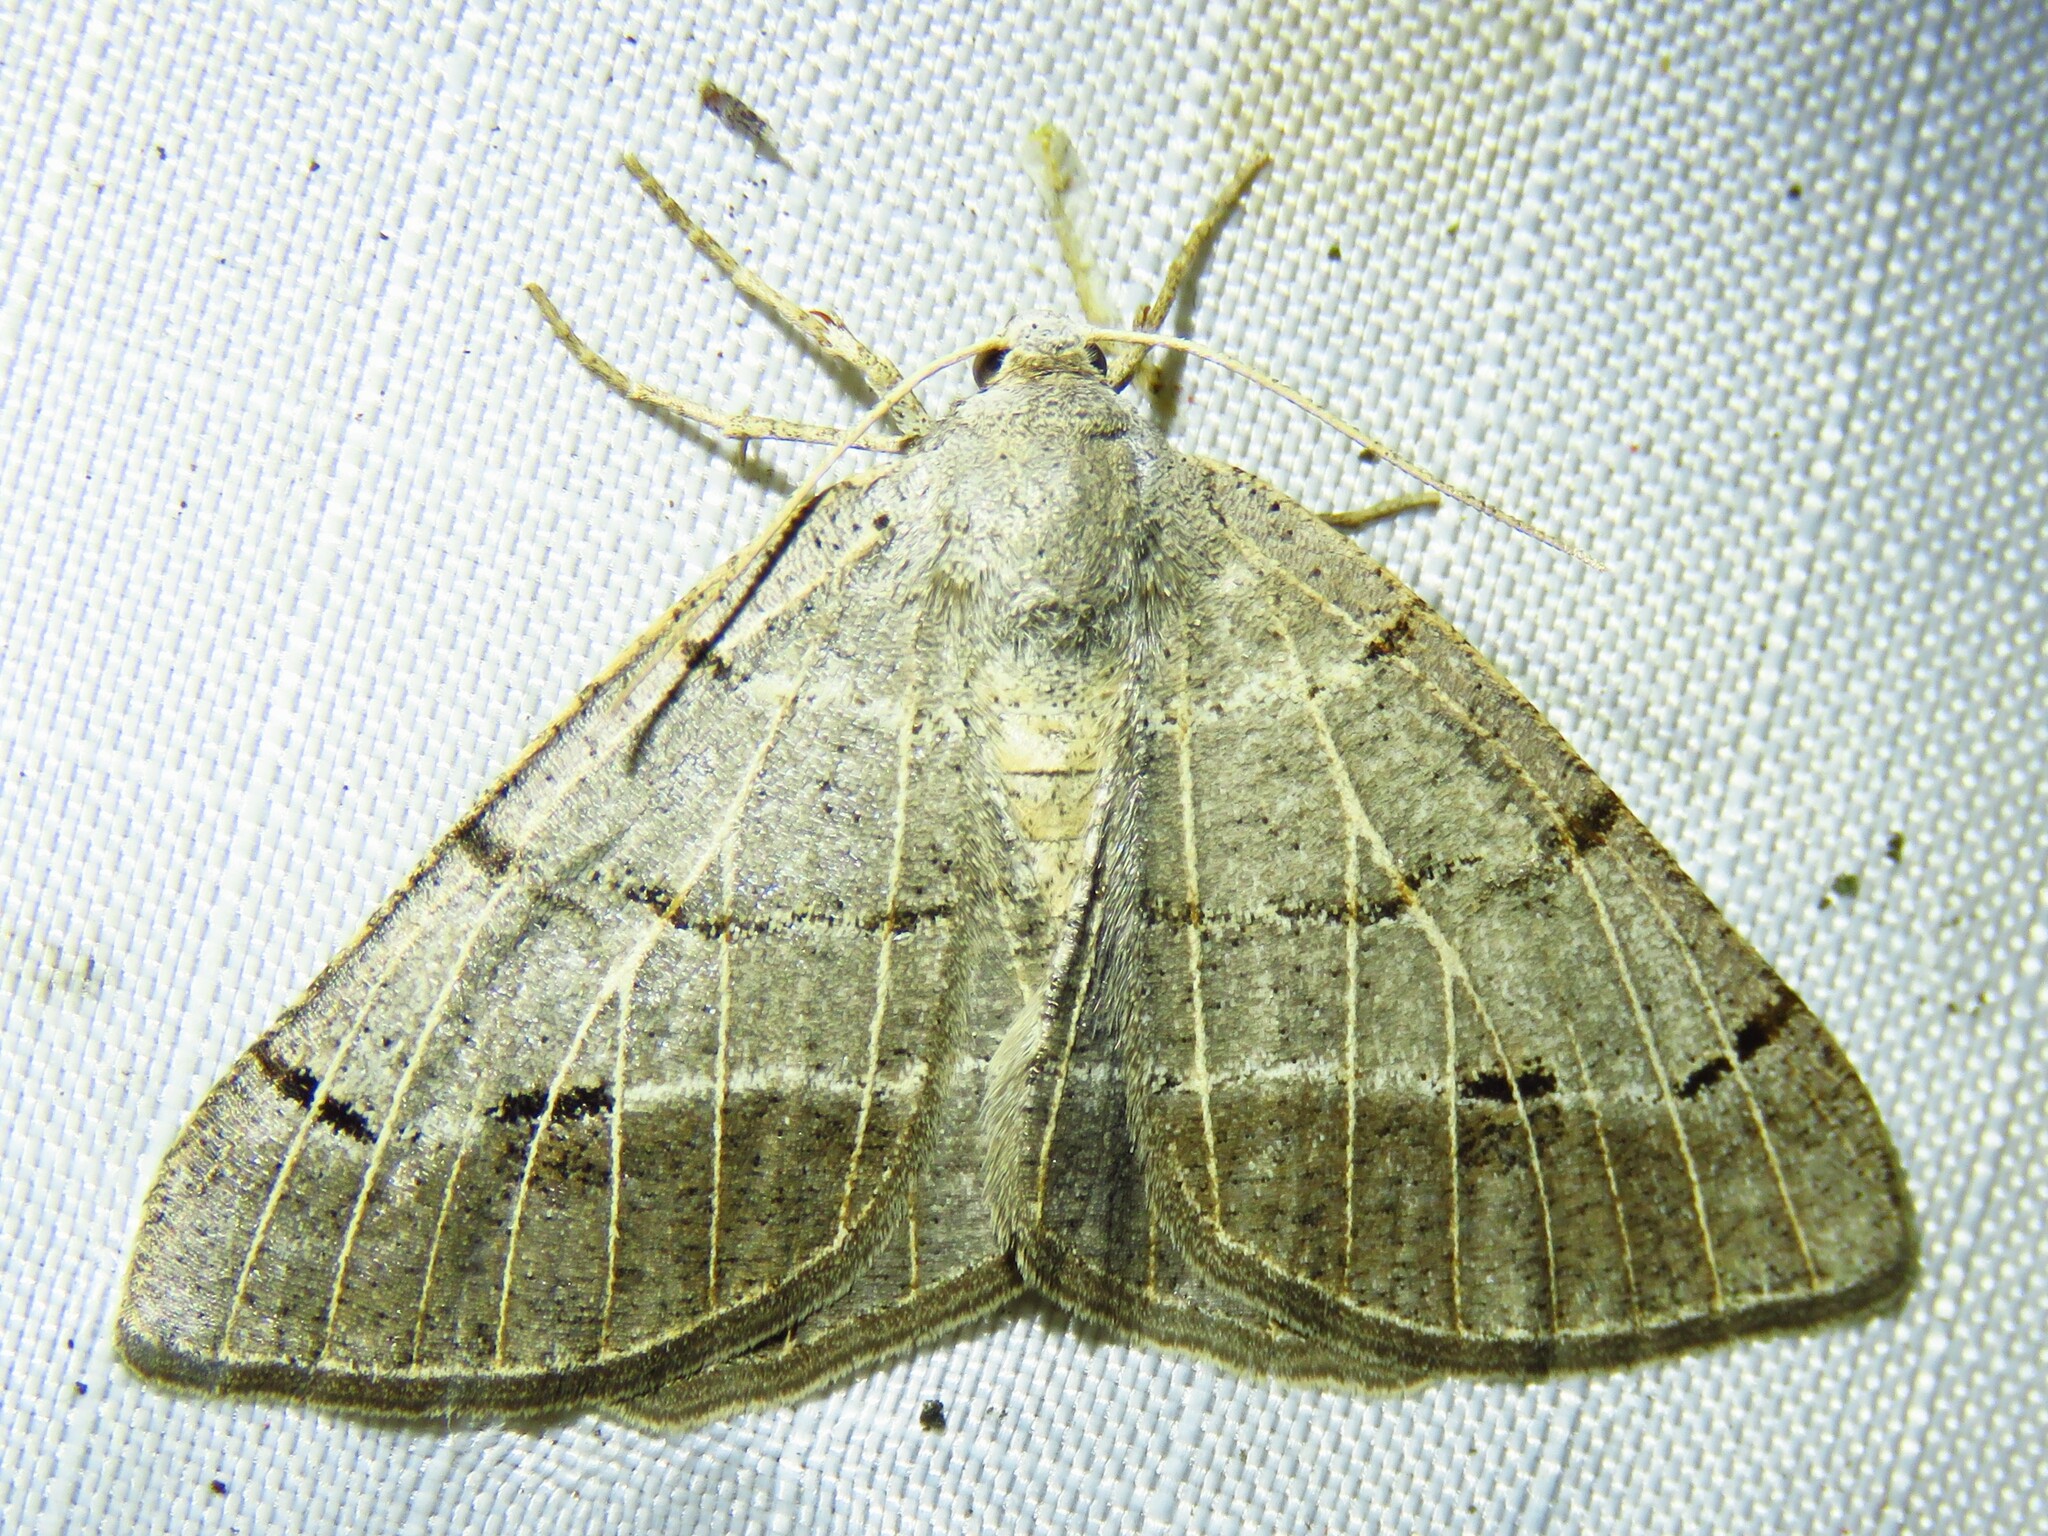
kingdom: Animalia
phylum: Arthropoda
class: Insecta
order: Lepidoptera
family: Geometridae
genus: Isturgia
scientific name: Isturgia dislocaria
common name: Pale-viened enconista
